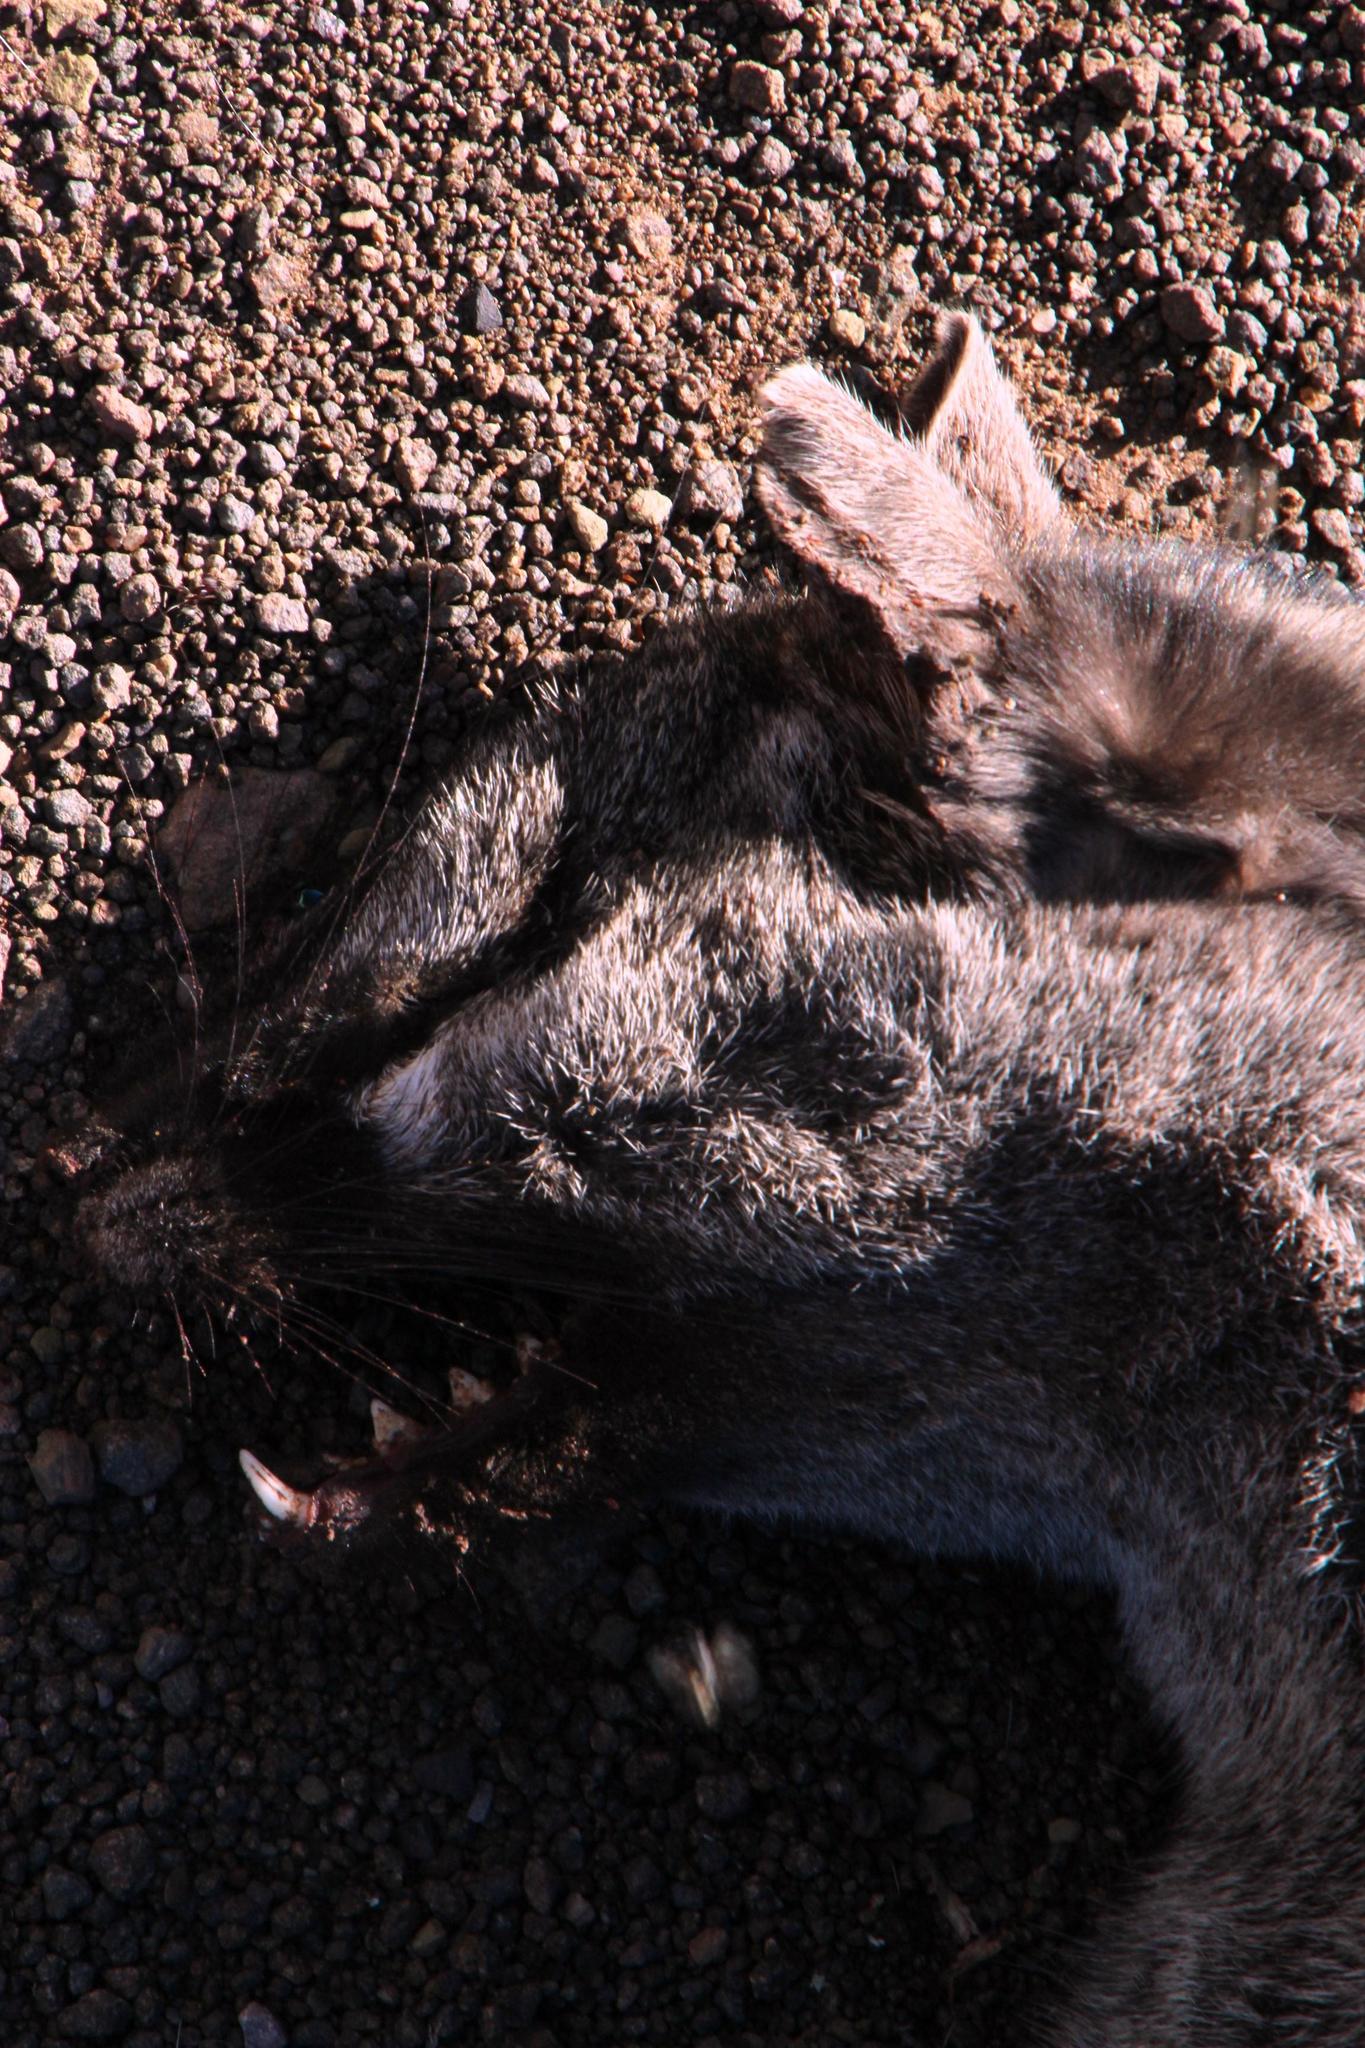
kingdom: Animalia
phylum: Chordata
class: Mammalia
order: Carnivora
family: Viverridae
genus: Genetta
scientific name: Genetta genetta
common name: Common genet
